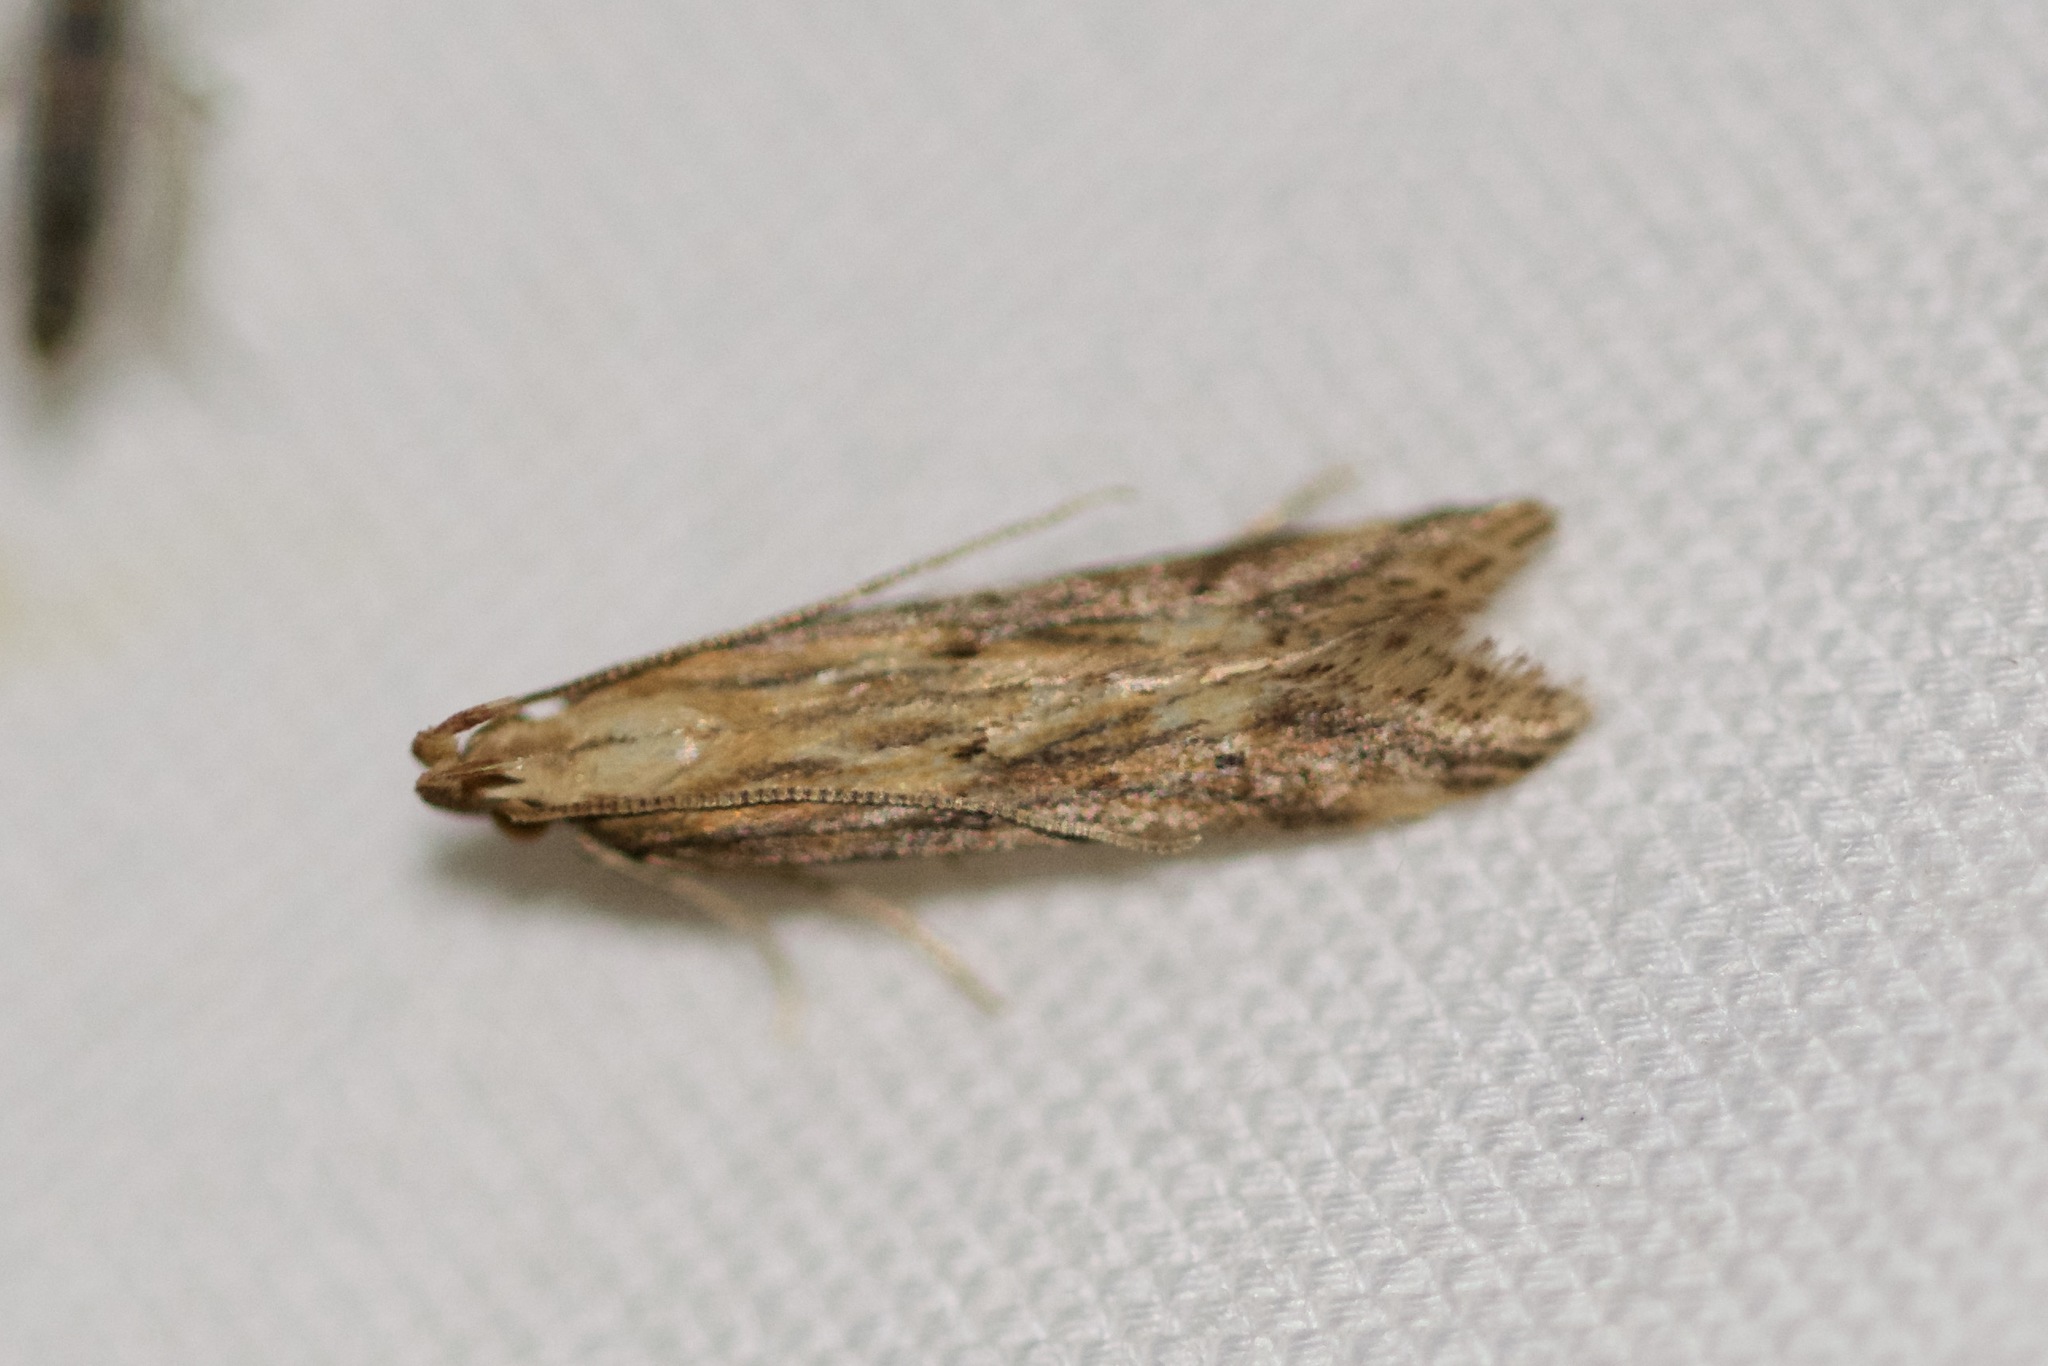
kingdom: Animalia
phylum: Arthropoda
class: Insecta
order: Lepidoptera
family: Gelechiidae
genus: Metzneria
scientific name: Metzneria lappella
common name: Burdock neb
